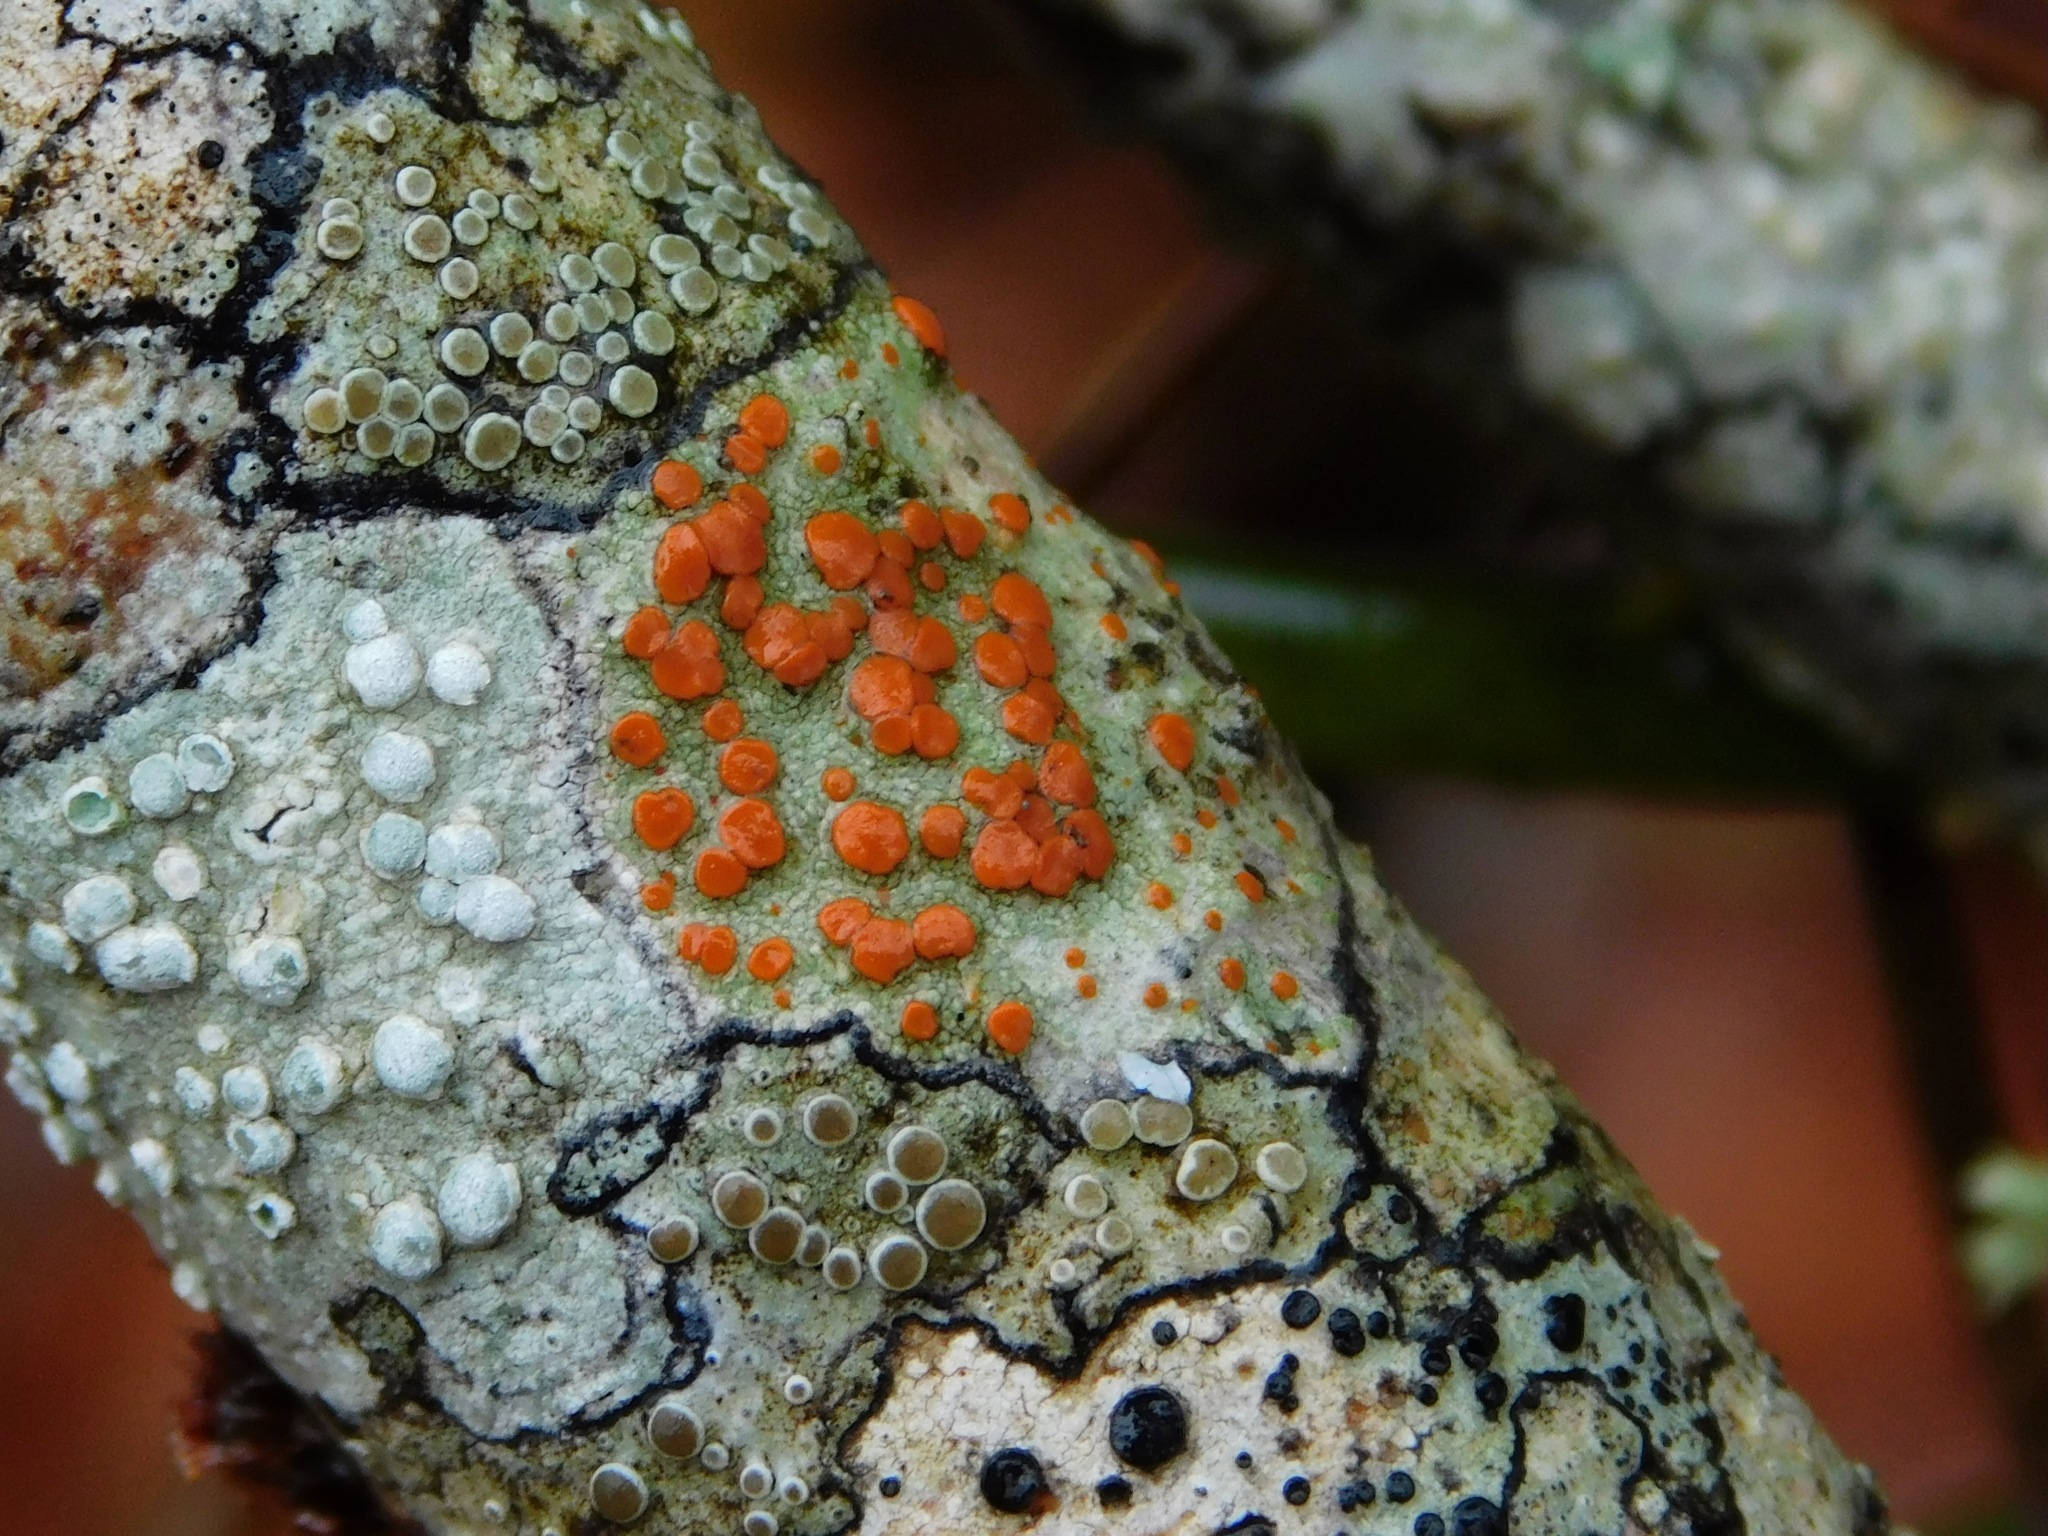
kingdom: Fungi
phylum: Ascomycota
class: Lecanoromycetes
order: Lecanorales
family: Ramboldiaceae
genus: Ramboldia
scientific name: Ramboldia russula
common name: Red heads
